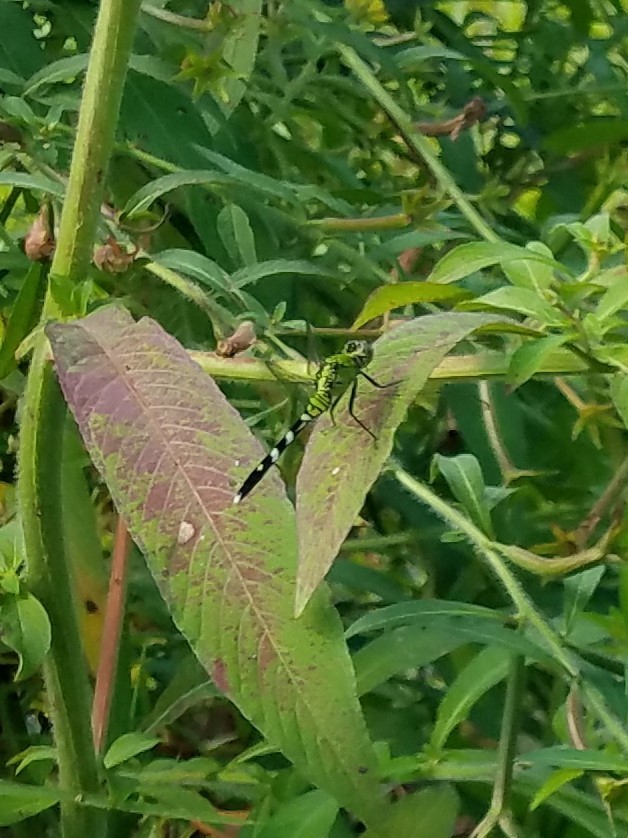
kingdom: Animalia
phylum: Arthropoda
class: Insecta
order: Odonata
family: Libellulidae
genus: Erythemis
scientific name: Erythemis simplicicollis
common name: Eastern pondhawk
